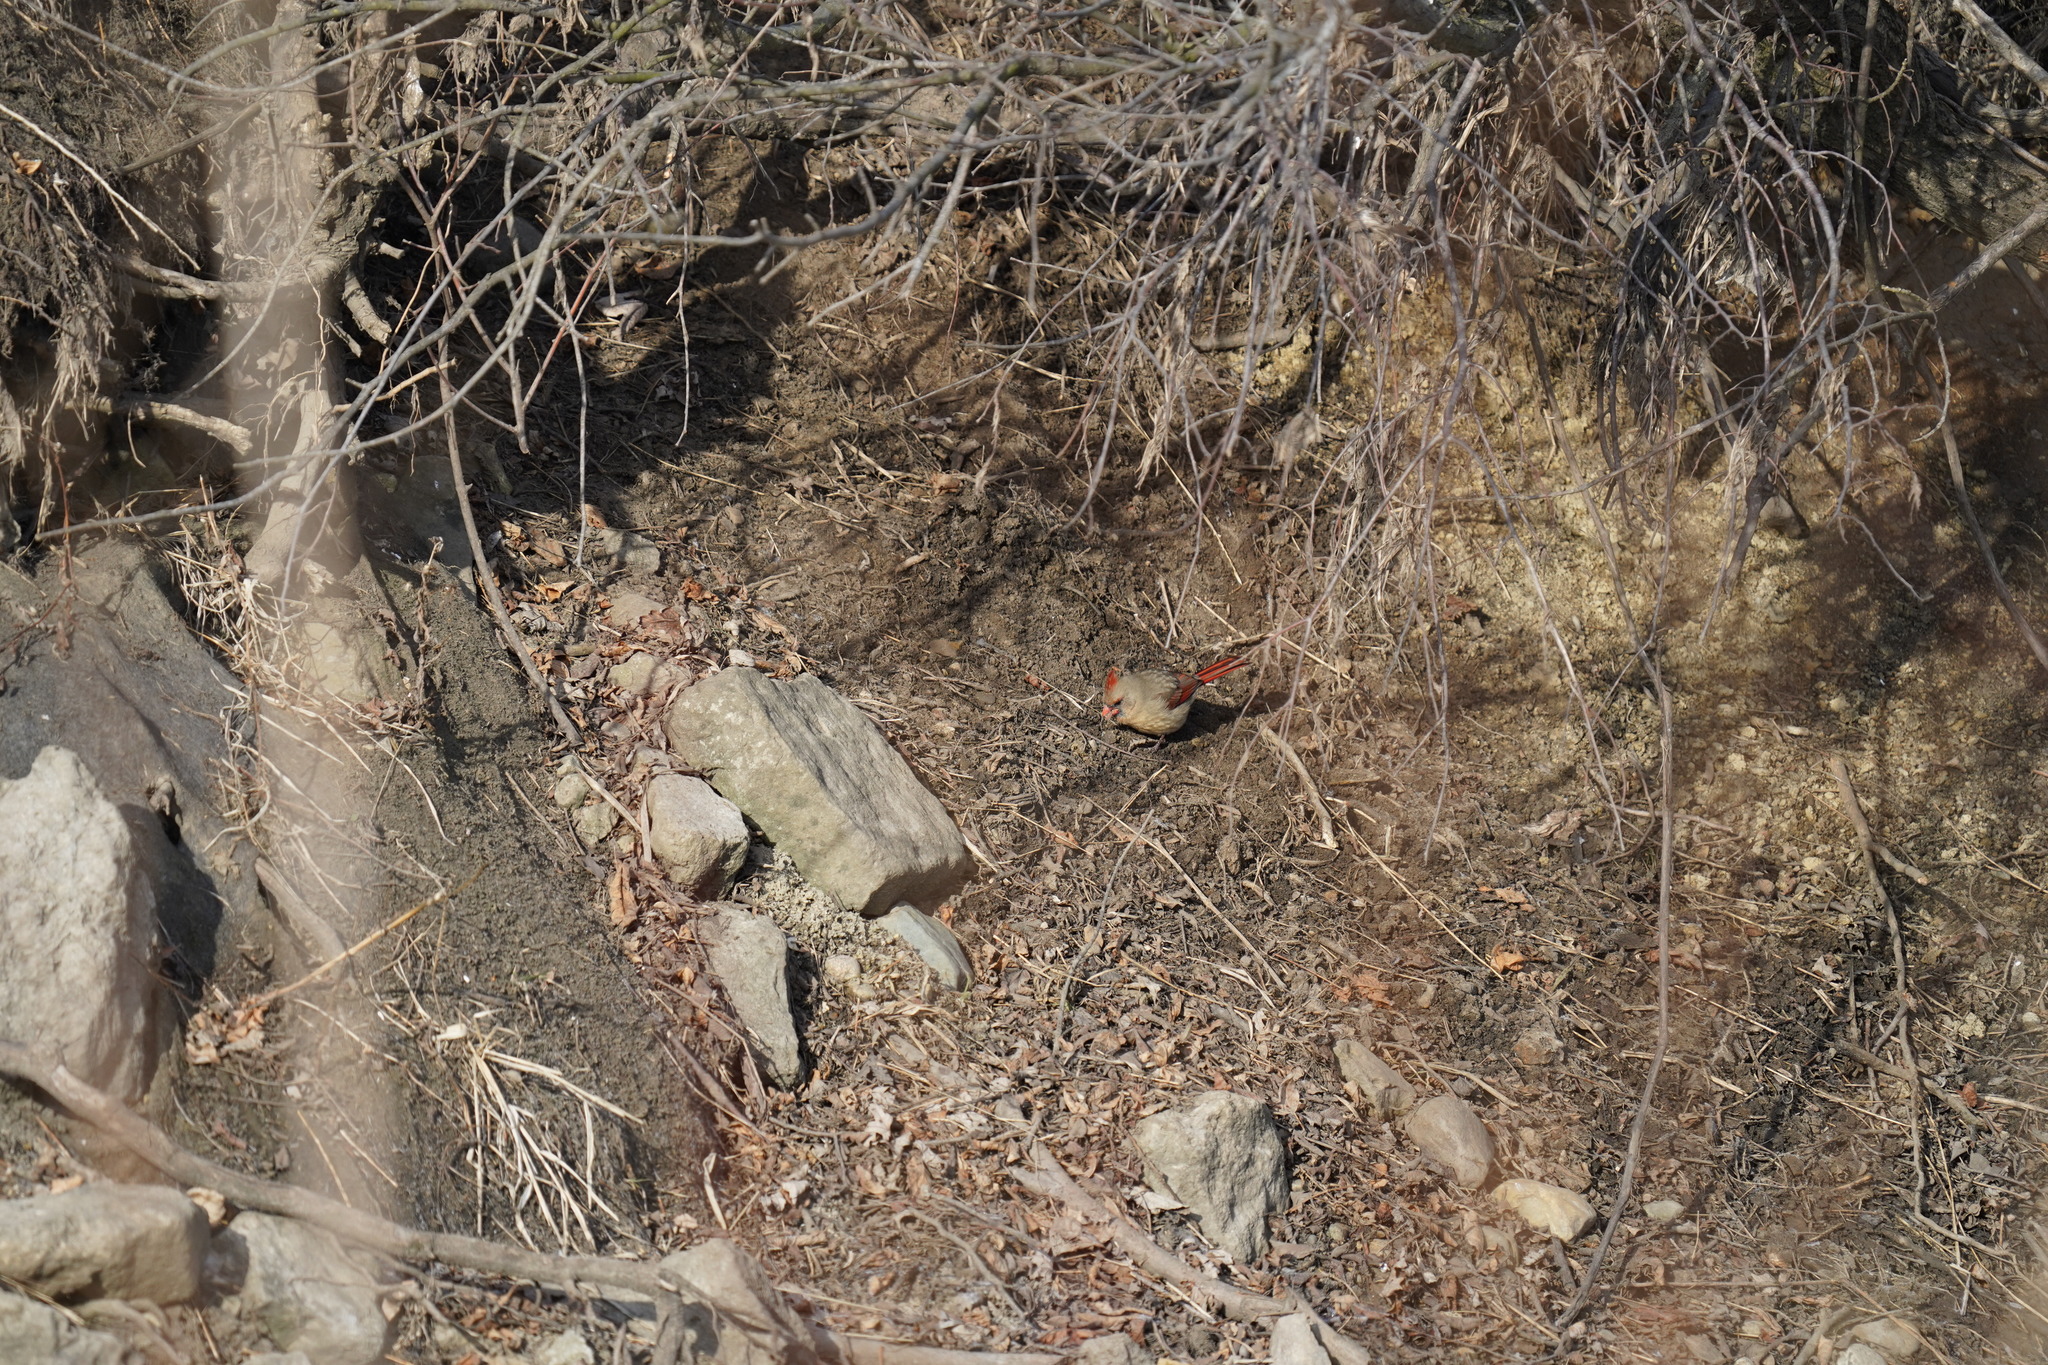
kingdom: Animalia
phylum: Chordata
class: Aves
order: Passeriformes
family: Cardinalidae
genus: Cardinalis
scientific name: Cardinalis cardinalis
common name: Northern cardinal
